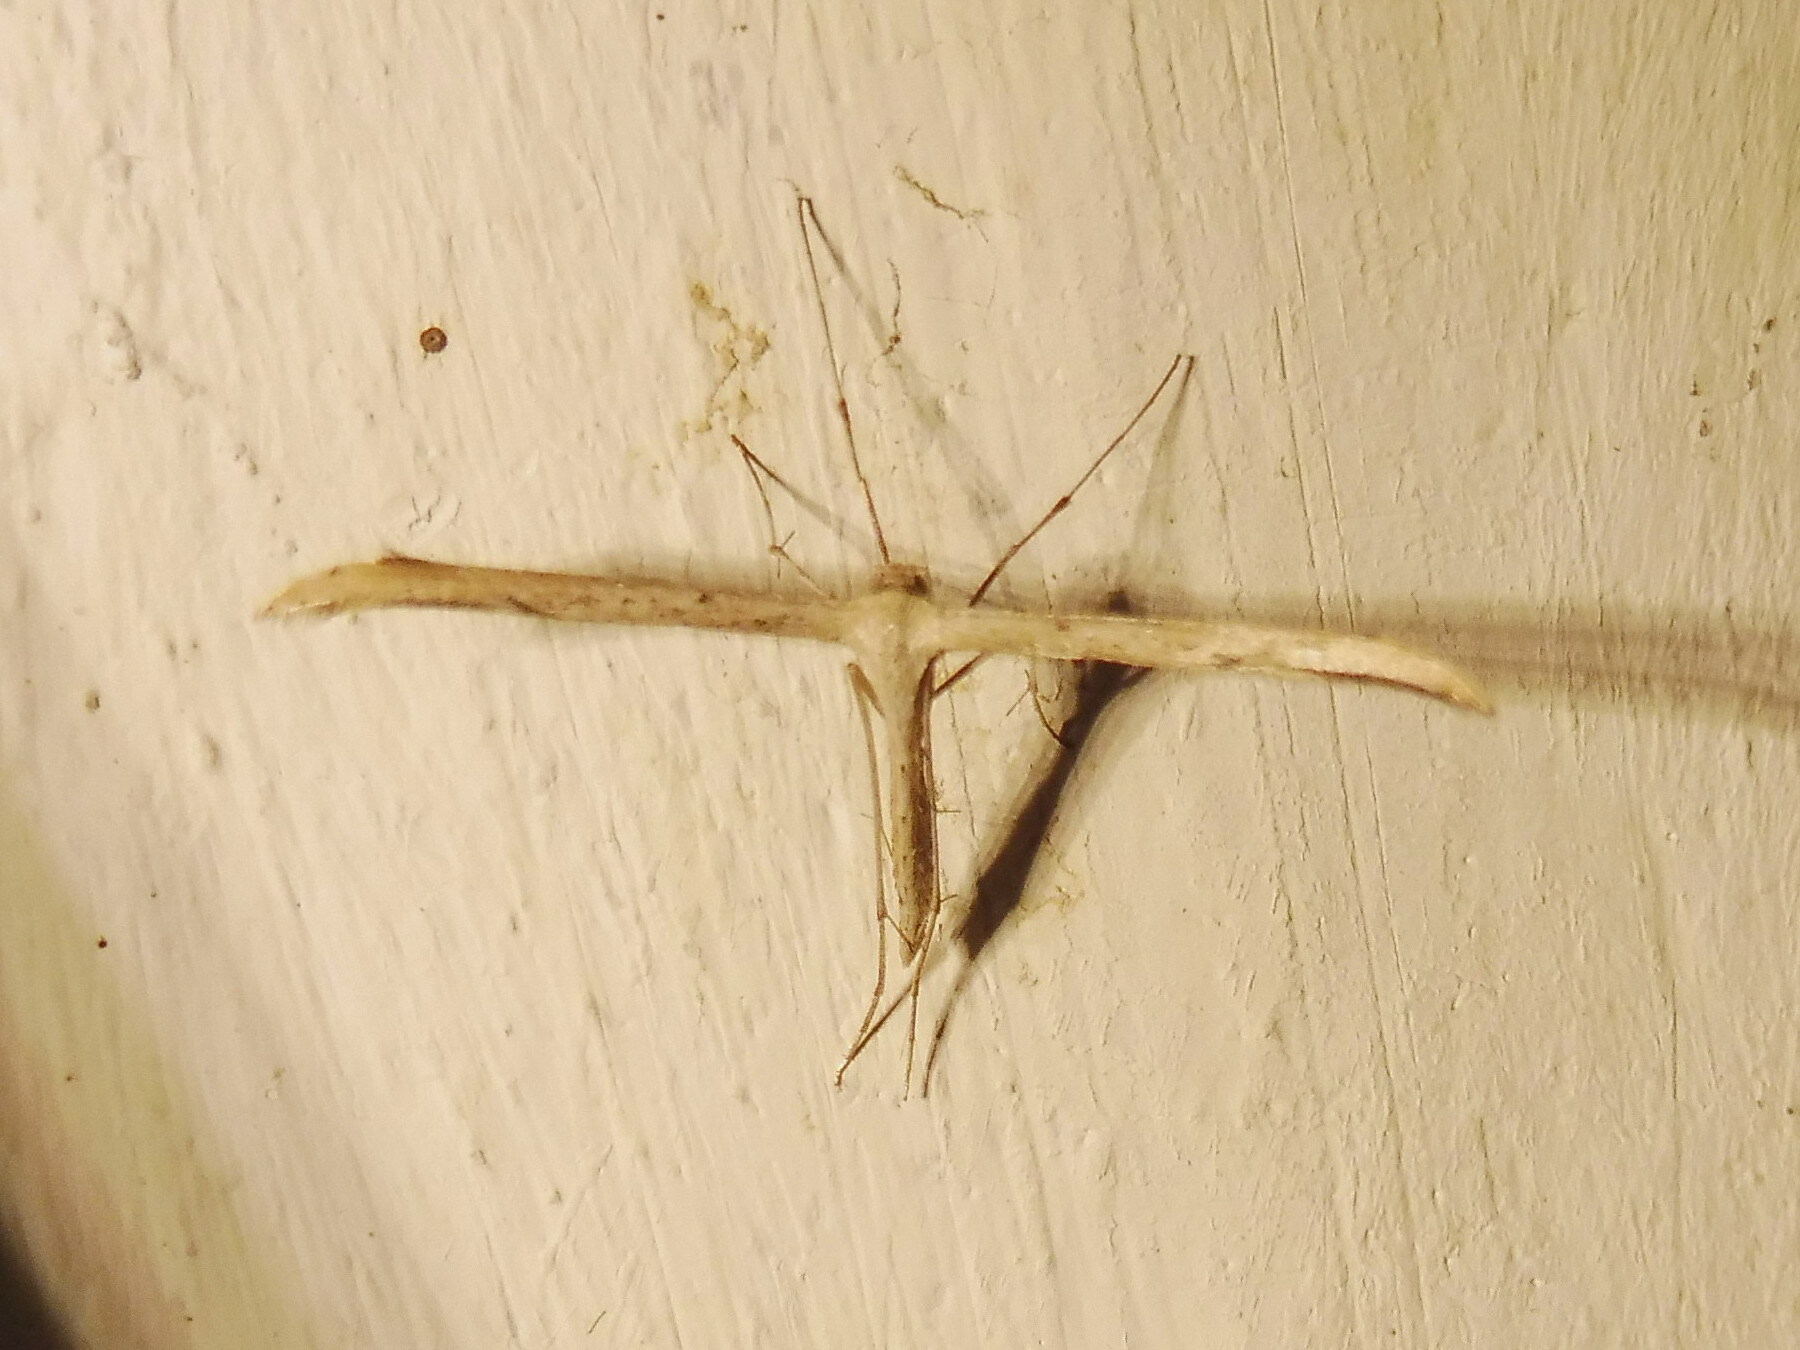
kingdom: Animalia
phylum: Arthropoda
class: Insecta
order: Lepidoptera
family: Pterophoridae
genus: Emmelina
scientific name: Emmelina monodactyla
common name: Common plume
